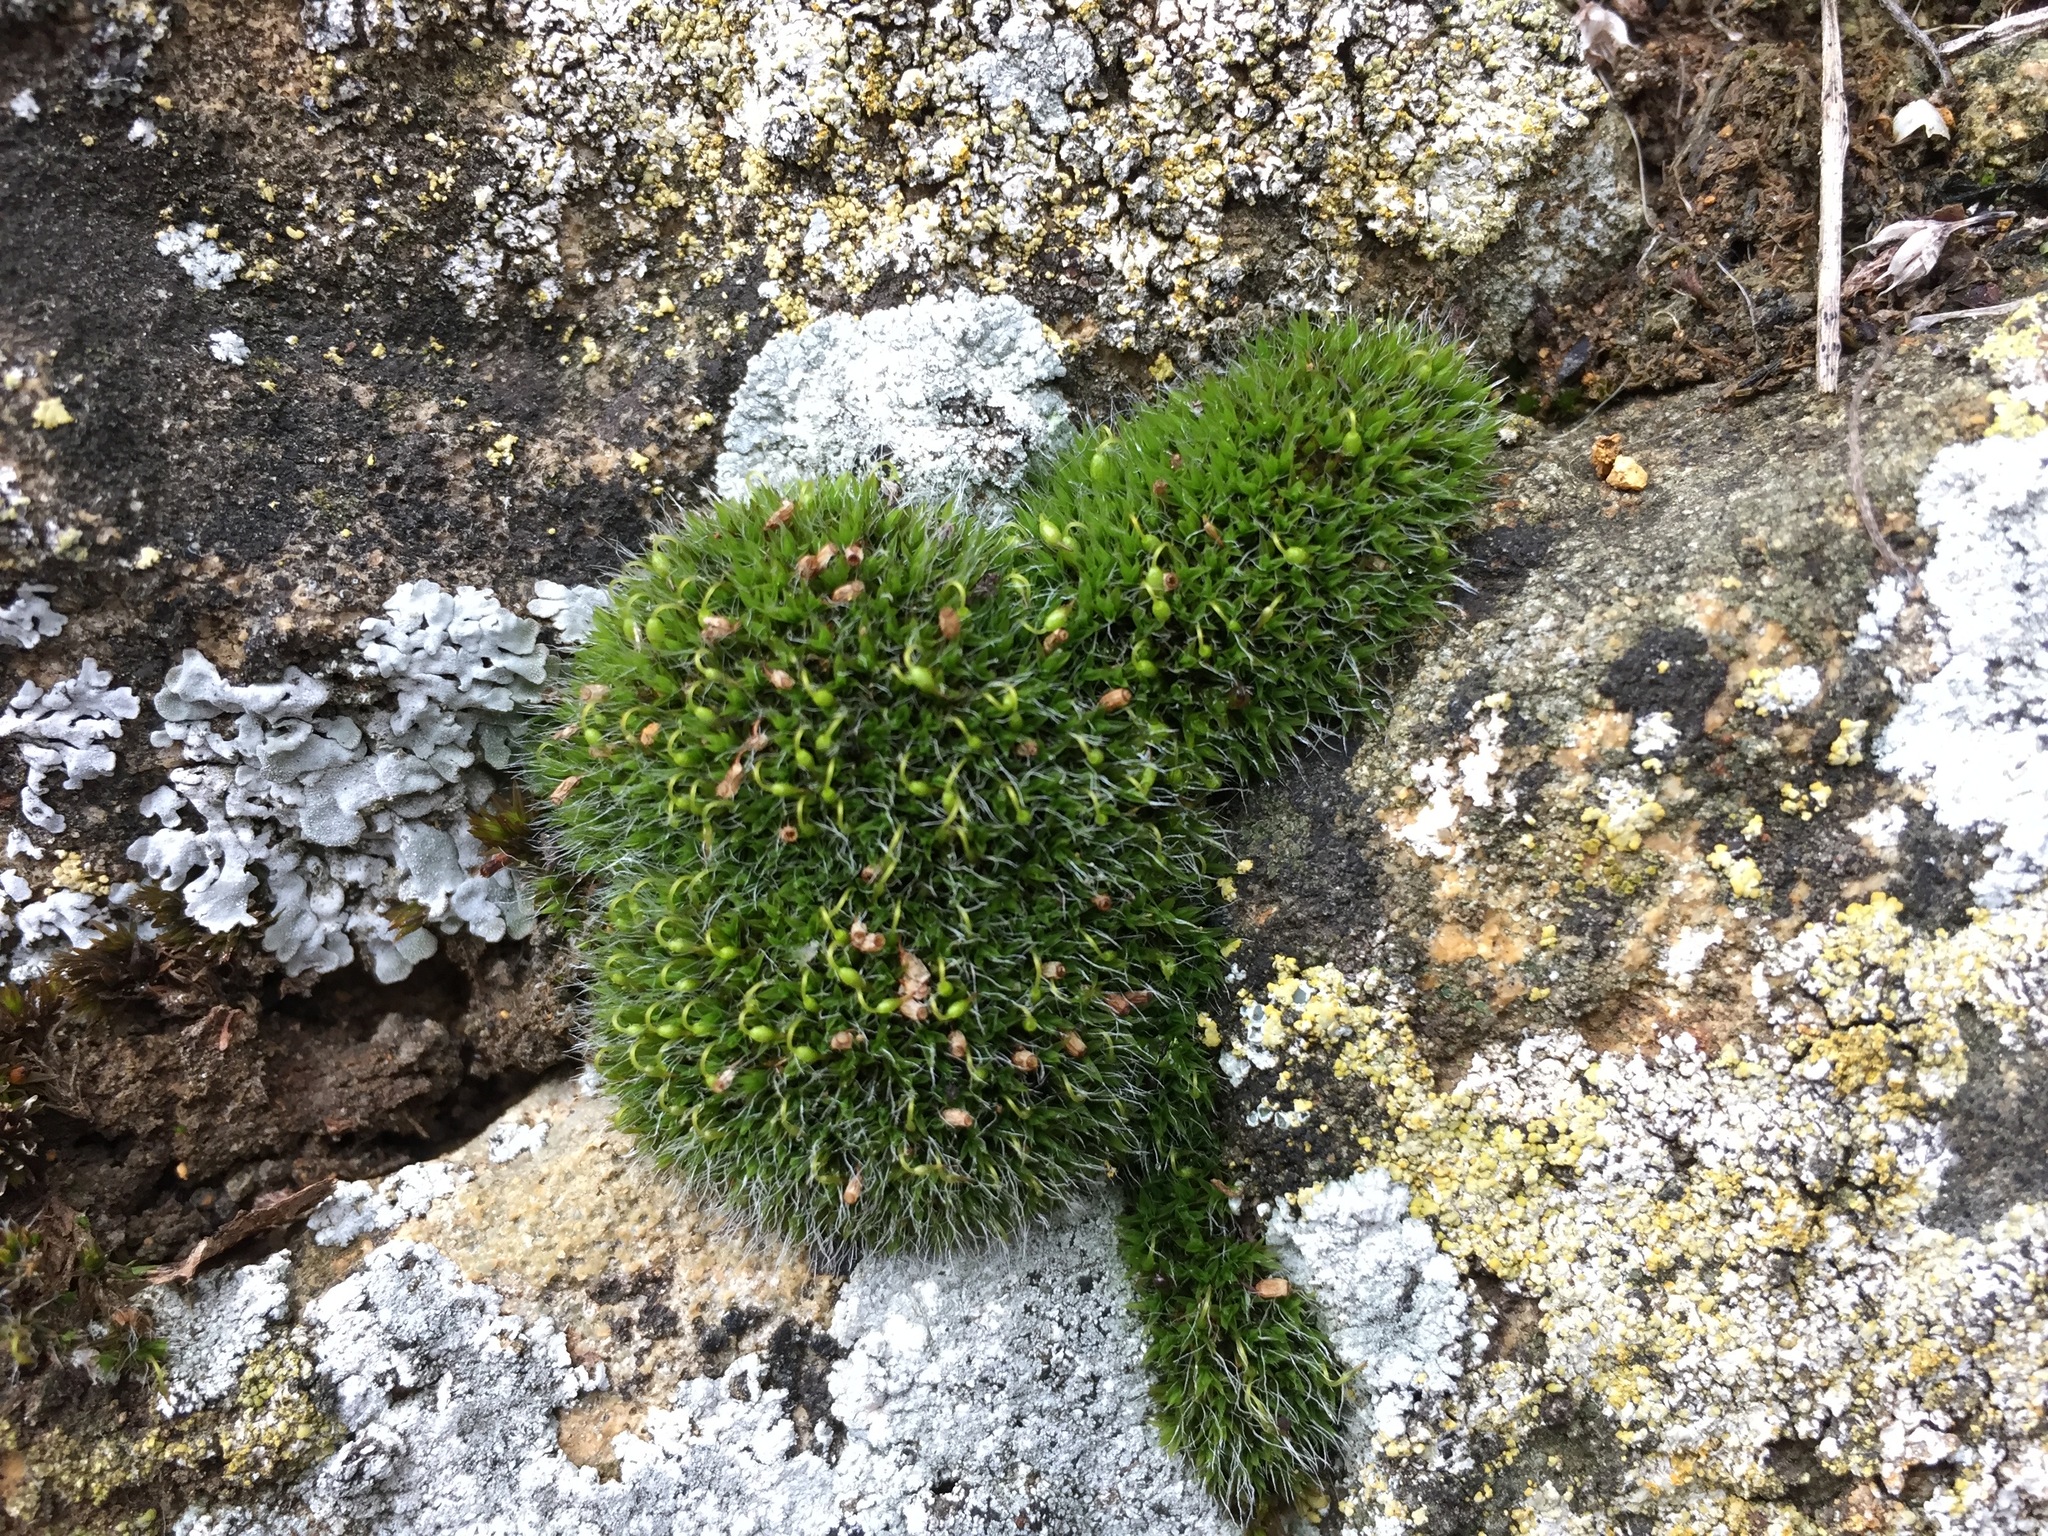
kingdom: Plantae
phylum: Bryophyta
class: Bryopsida
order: Grimmiales
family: Grimmiaceae
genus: Grimmia
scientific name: Grimmia pulvinata
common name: Grey-cushioned grimmia
